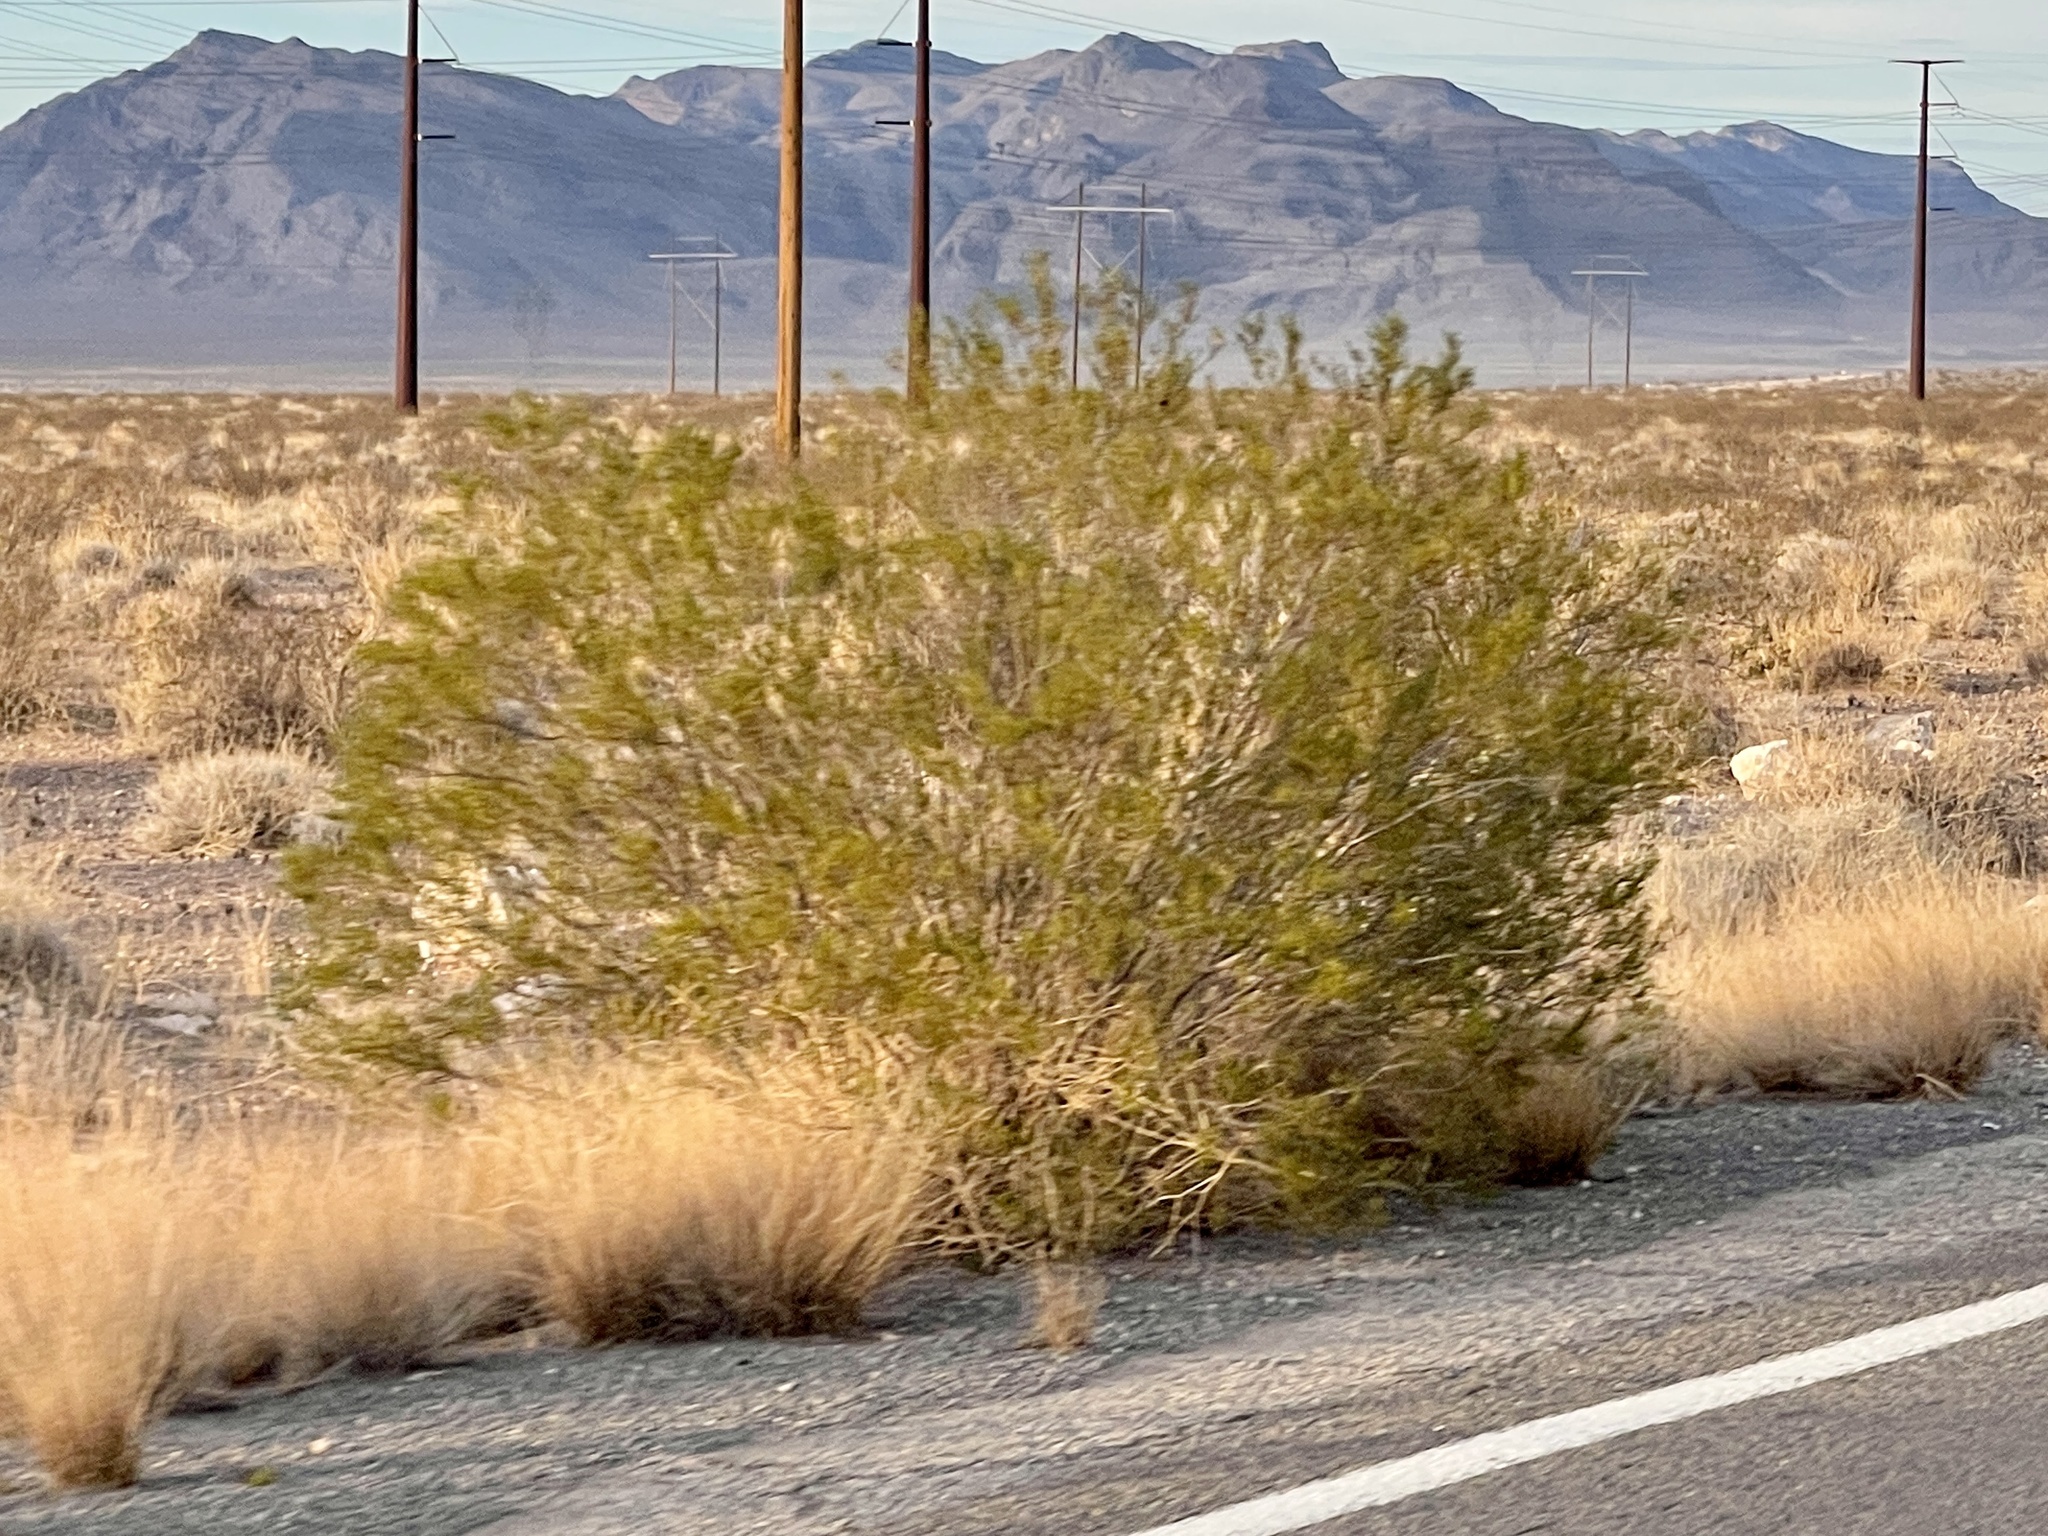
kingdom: Plantae
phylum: Tracheophyta
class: Magnoliopsida
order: Zygophyllales
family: Zygophyllaceae
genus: Larrea
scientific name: Larrea tridentata
